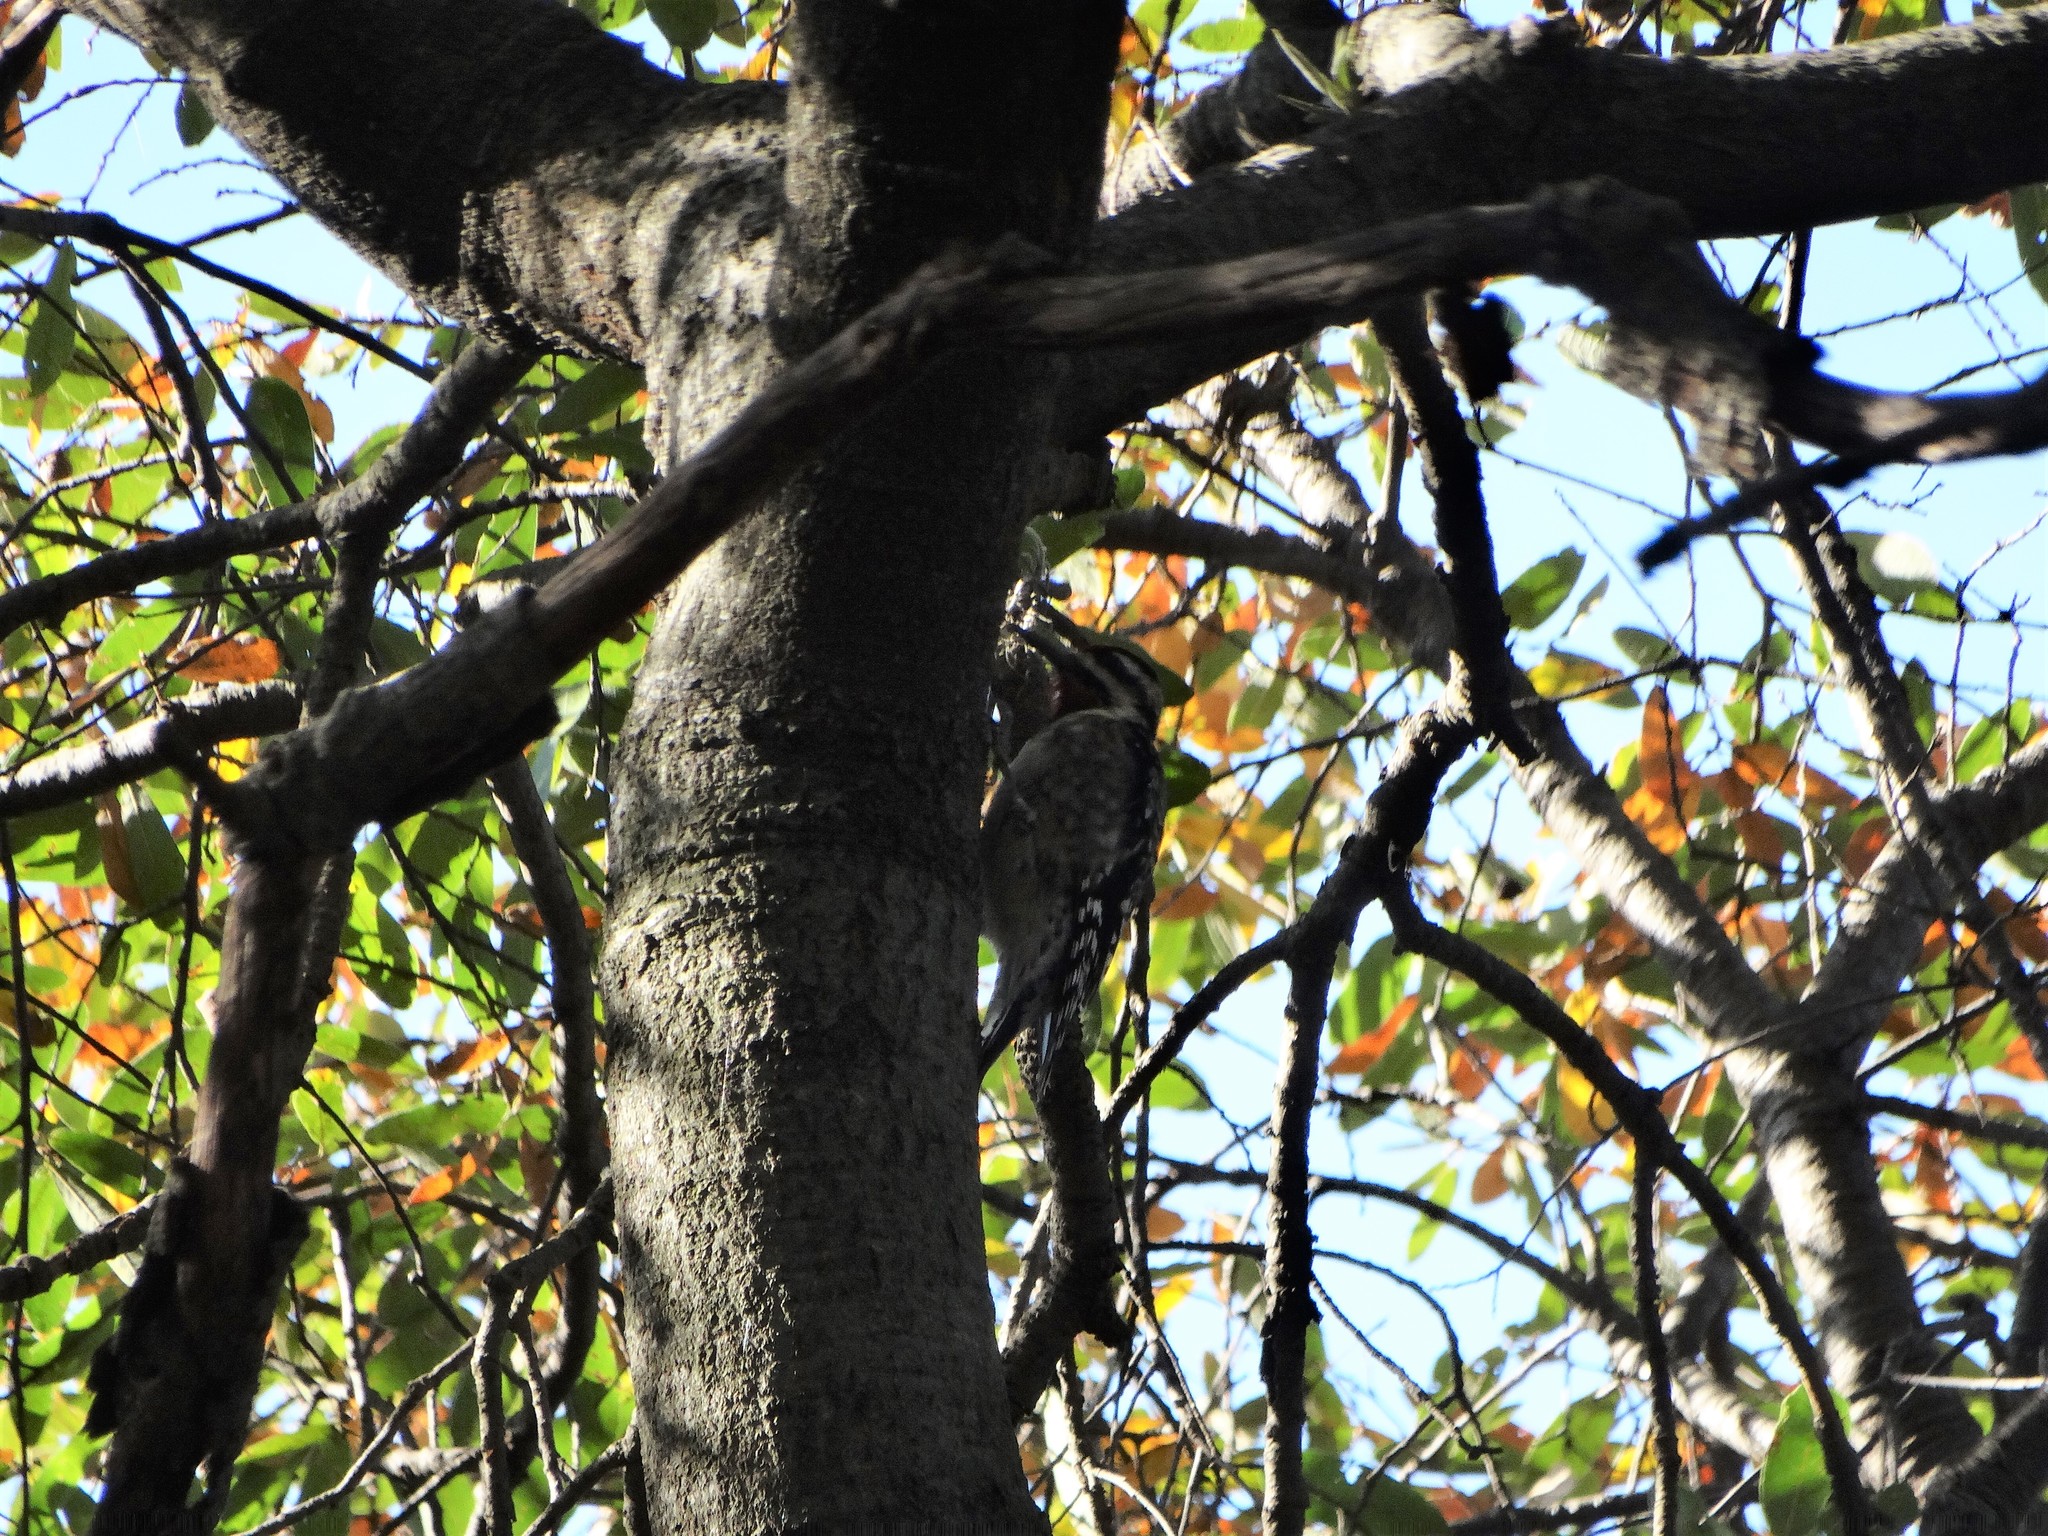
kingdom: Animalia
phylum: Chordata
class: Aves
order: Piciformes
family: Picidae
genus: Sphyrapicus
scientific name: Sphyrapicus varius
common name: Yellow-bellied sapsucker
